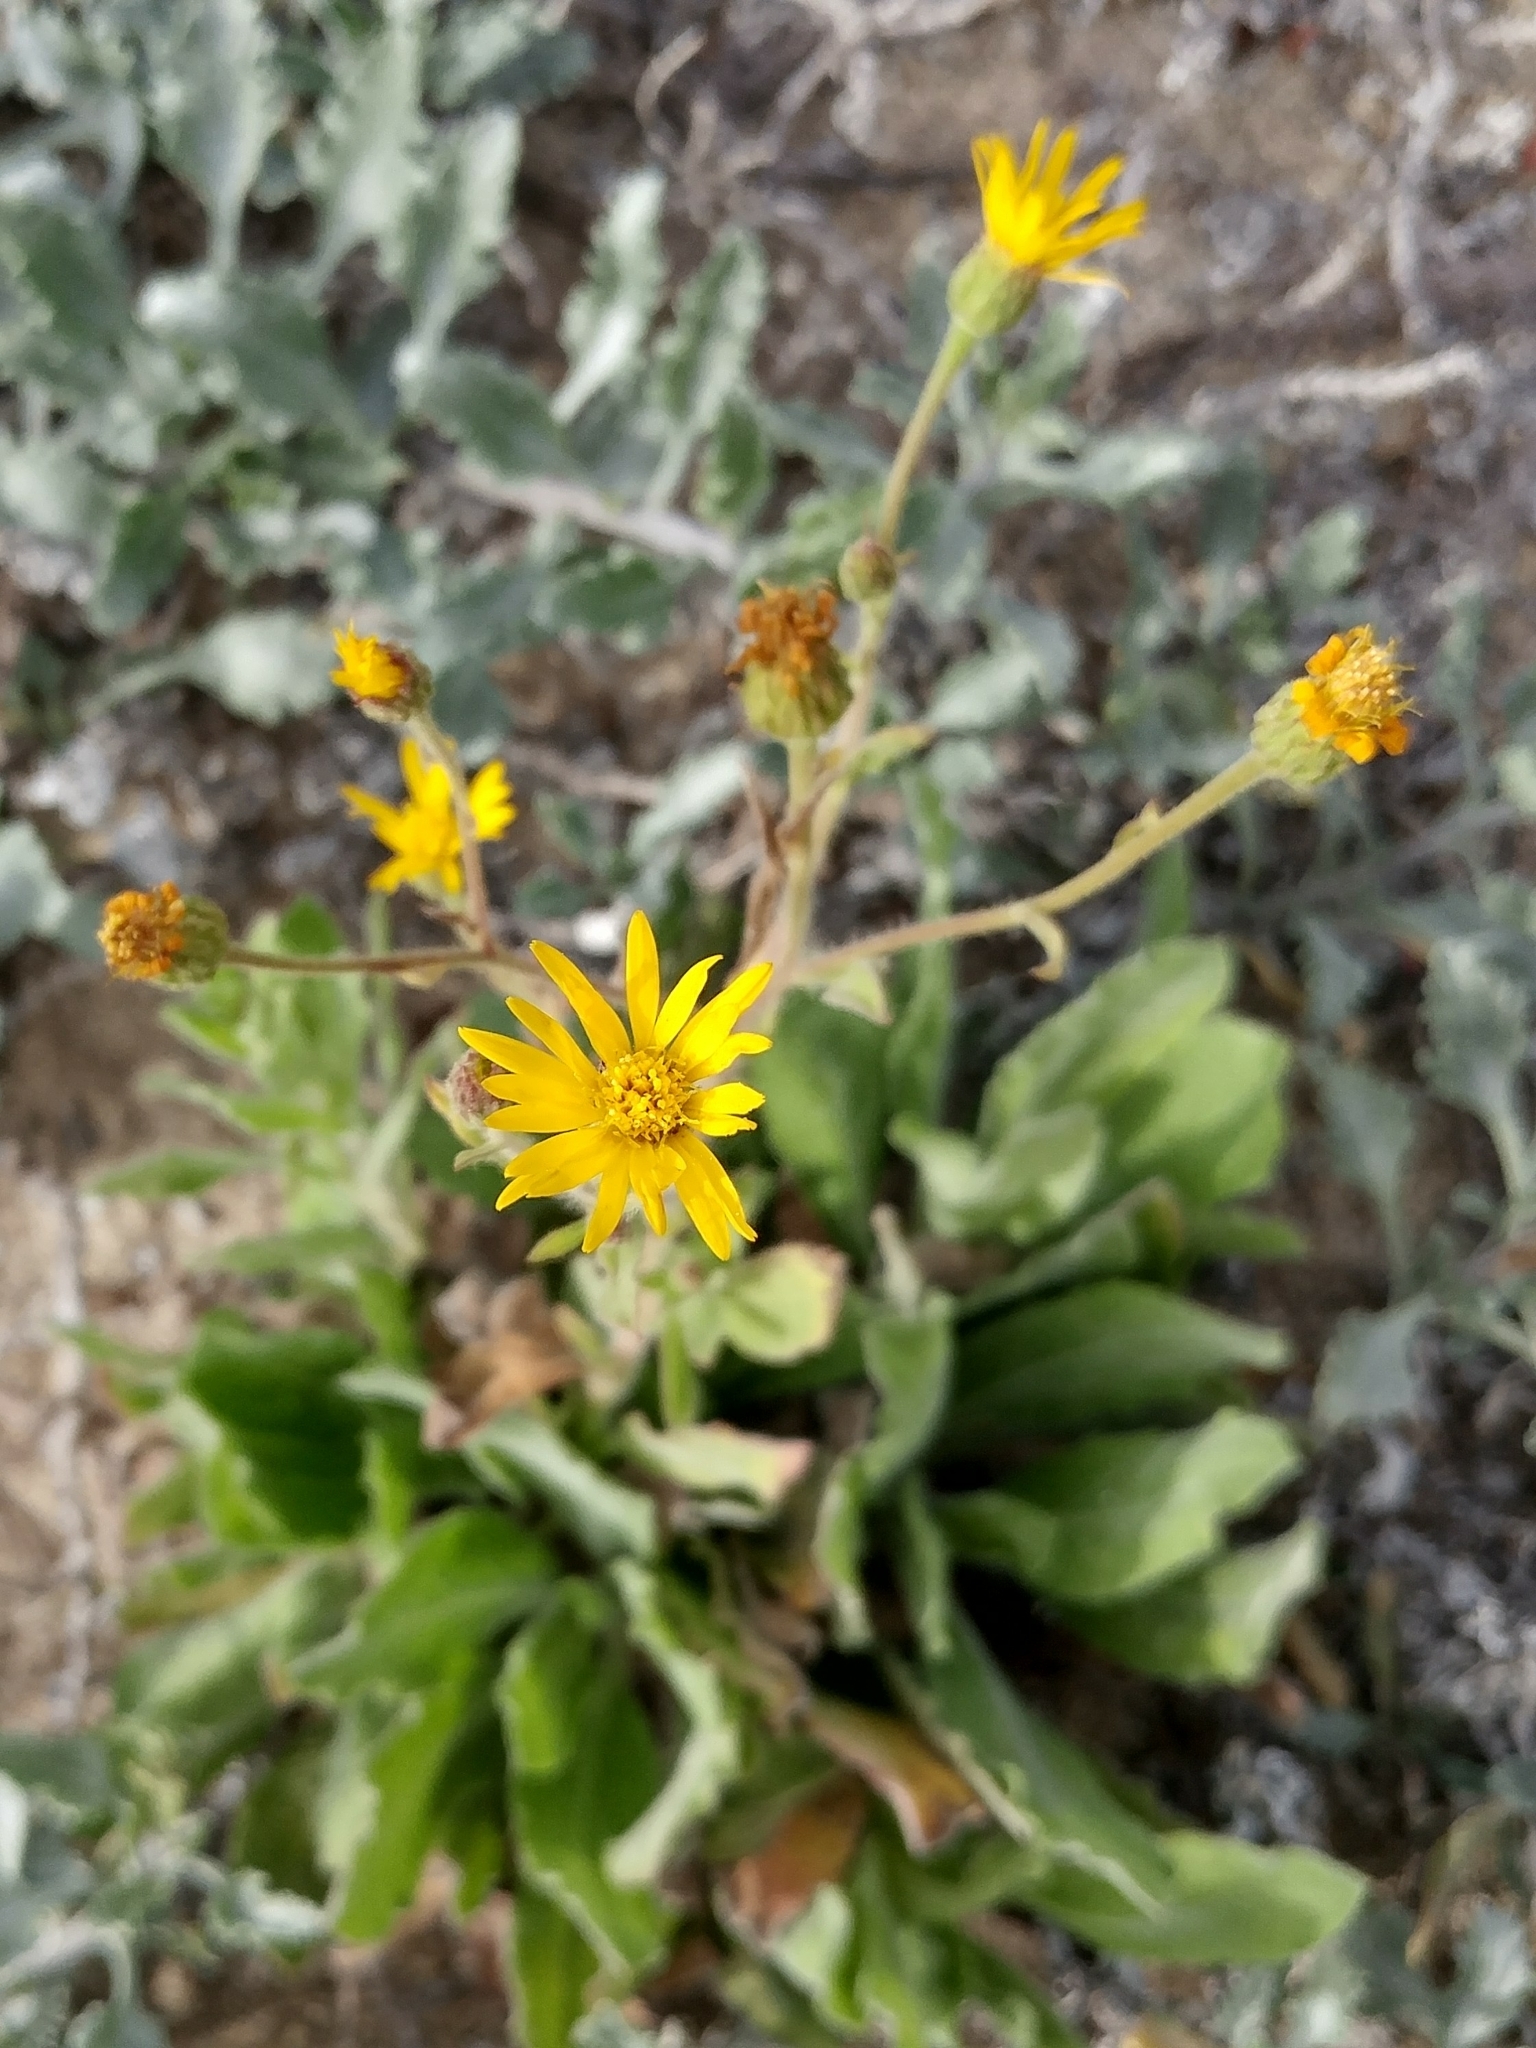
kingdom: Plantae
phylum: Tracheophyta
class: Magnoliopsida
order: Asterales
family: Asteraceae
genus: Heterotheca
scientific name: Heterotheca grandiflora
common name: Telegraphweed
